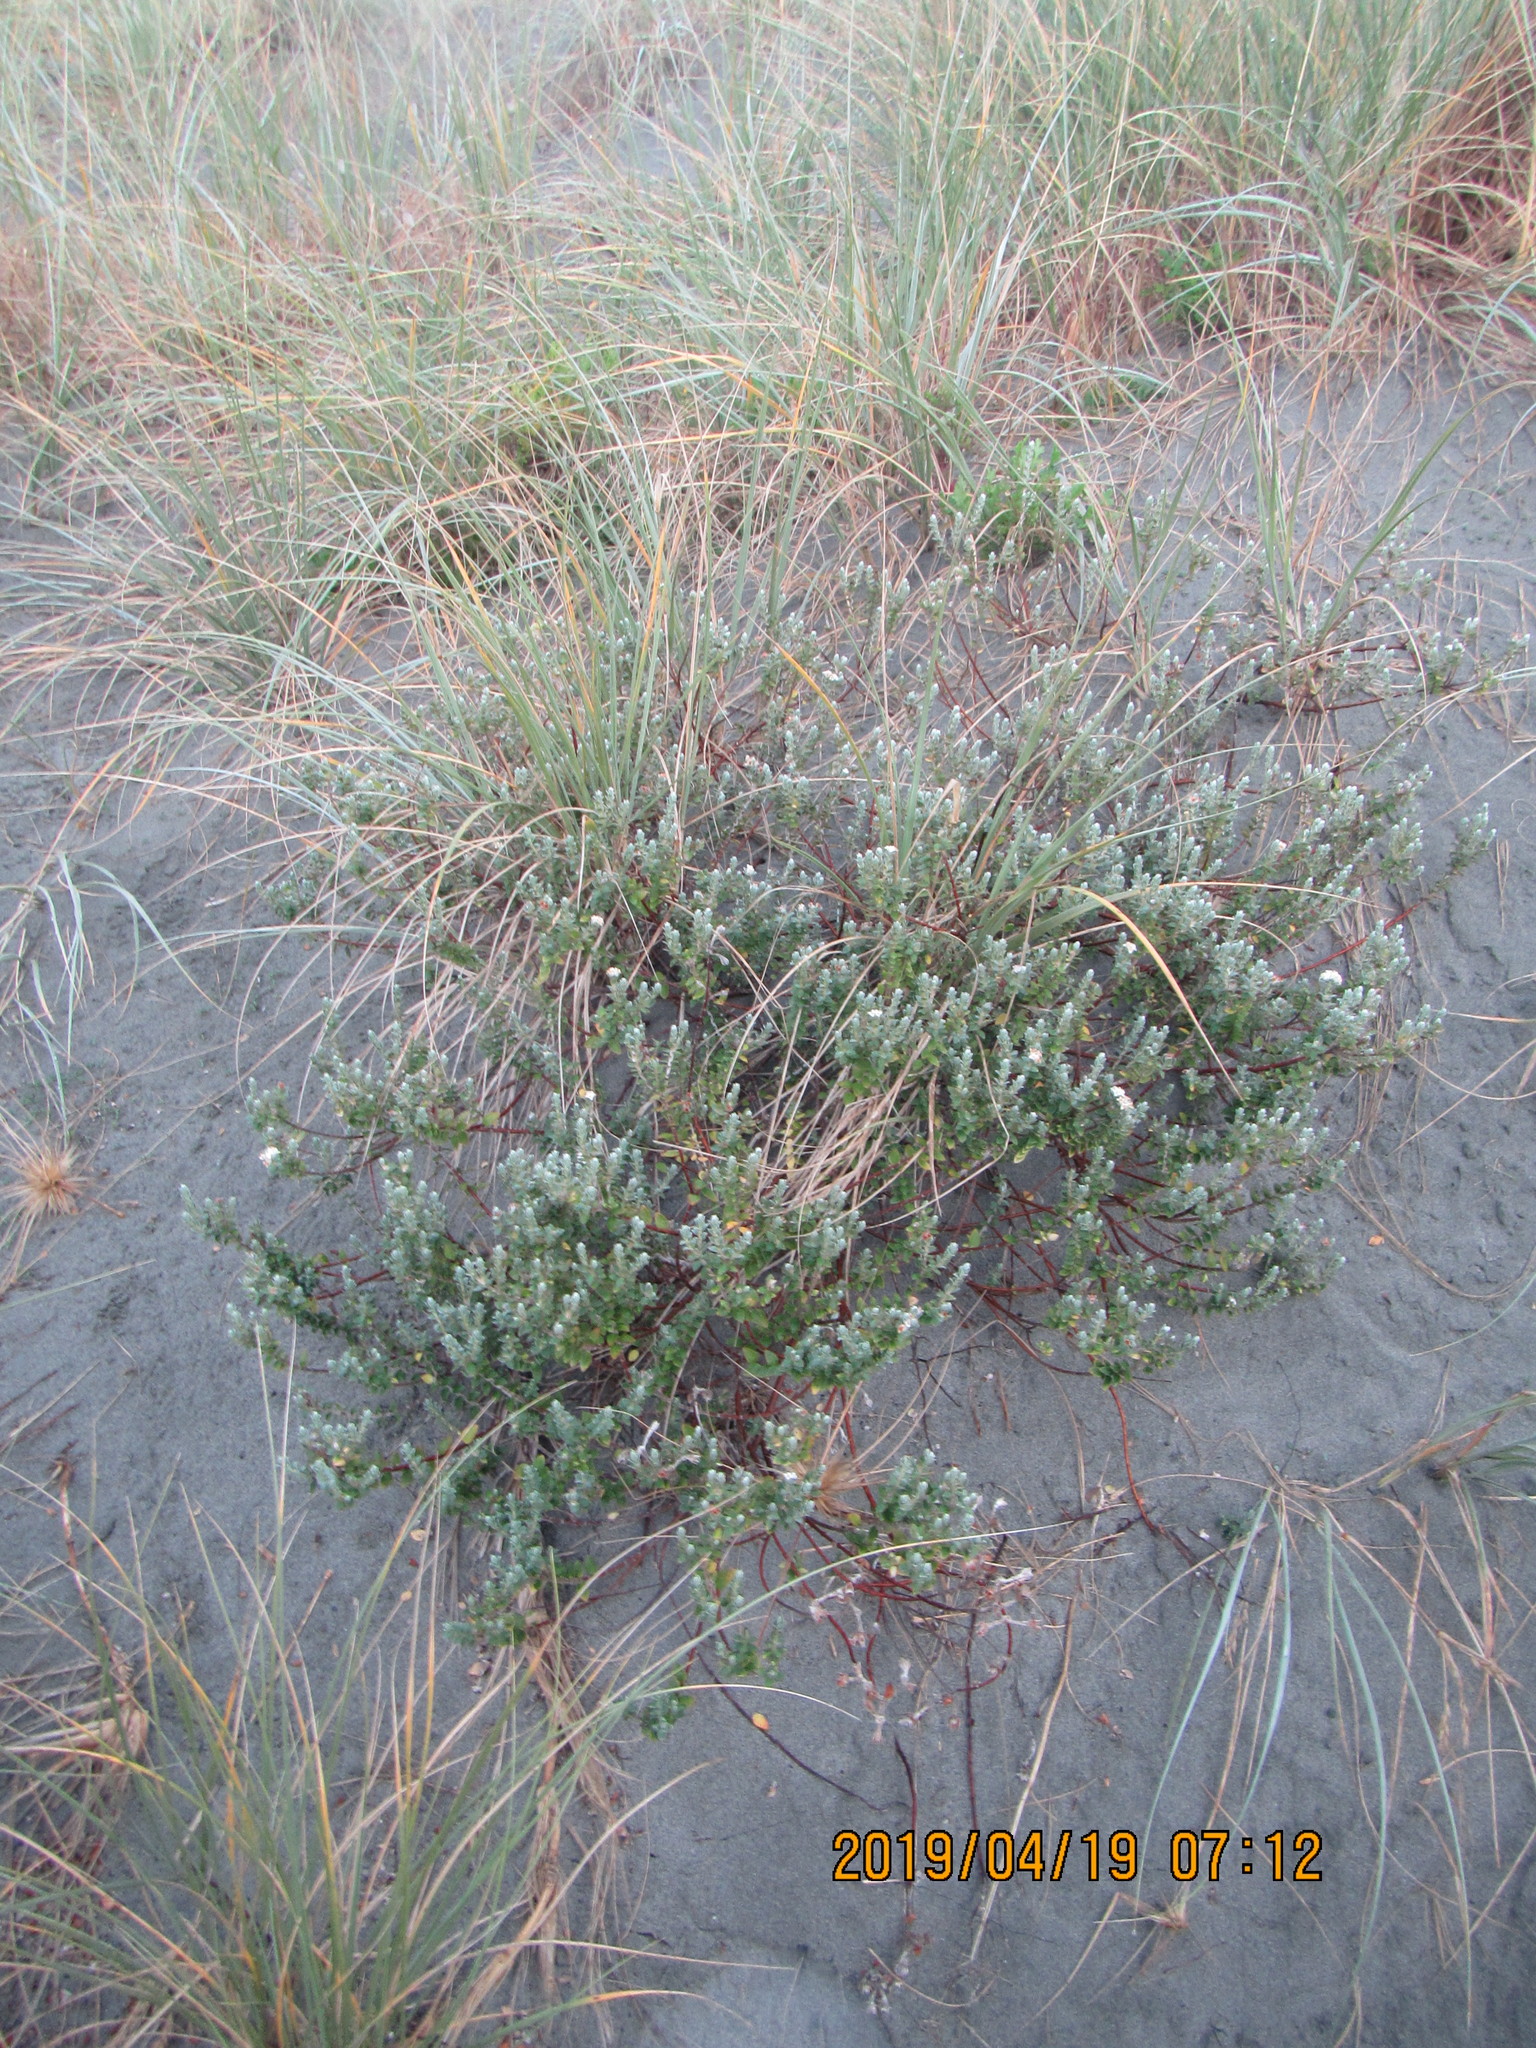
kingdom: Plantae
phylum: Tracheophyta
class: Magnoliopsida
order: Malvales
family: Thymelaeaceae
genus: Pimelea
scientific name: Pimelea villosa
